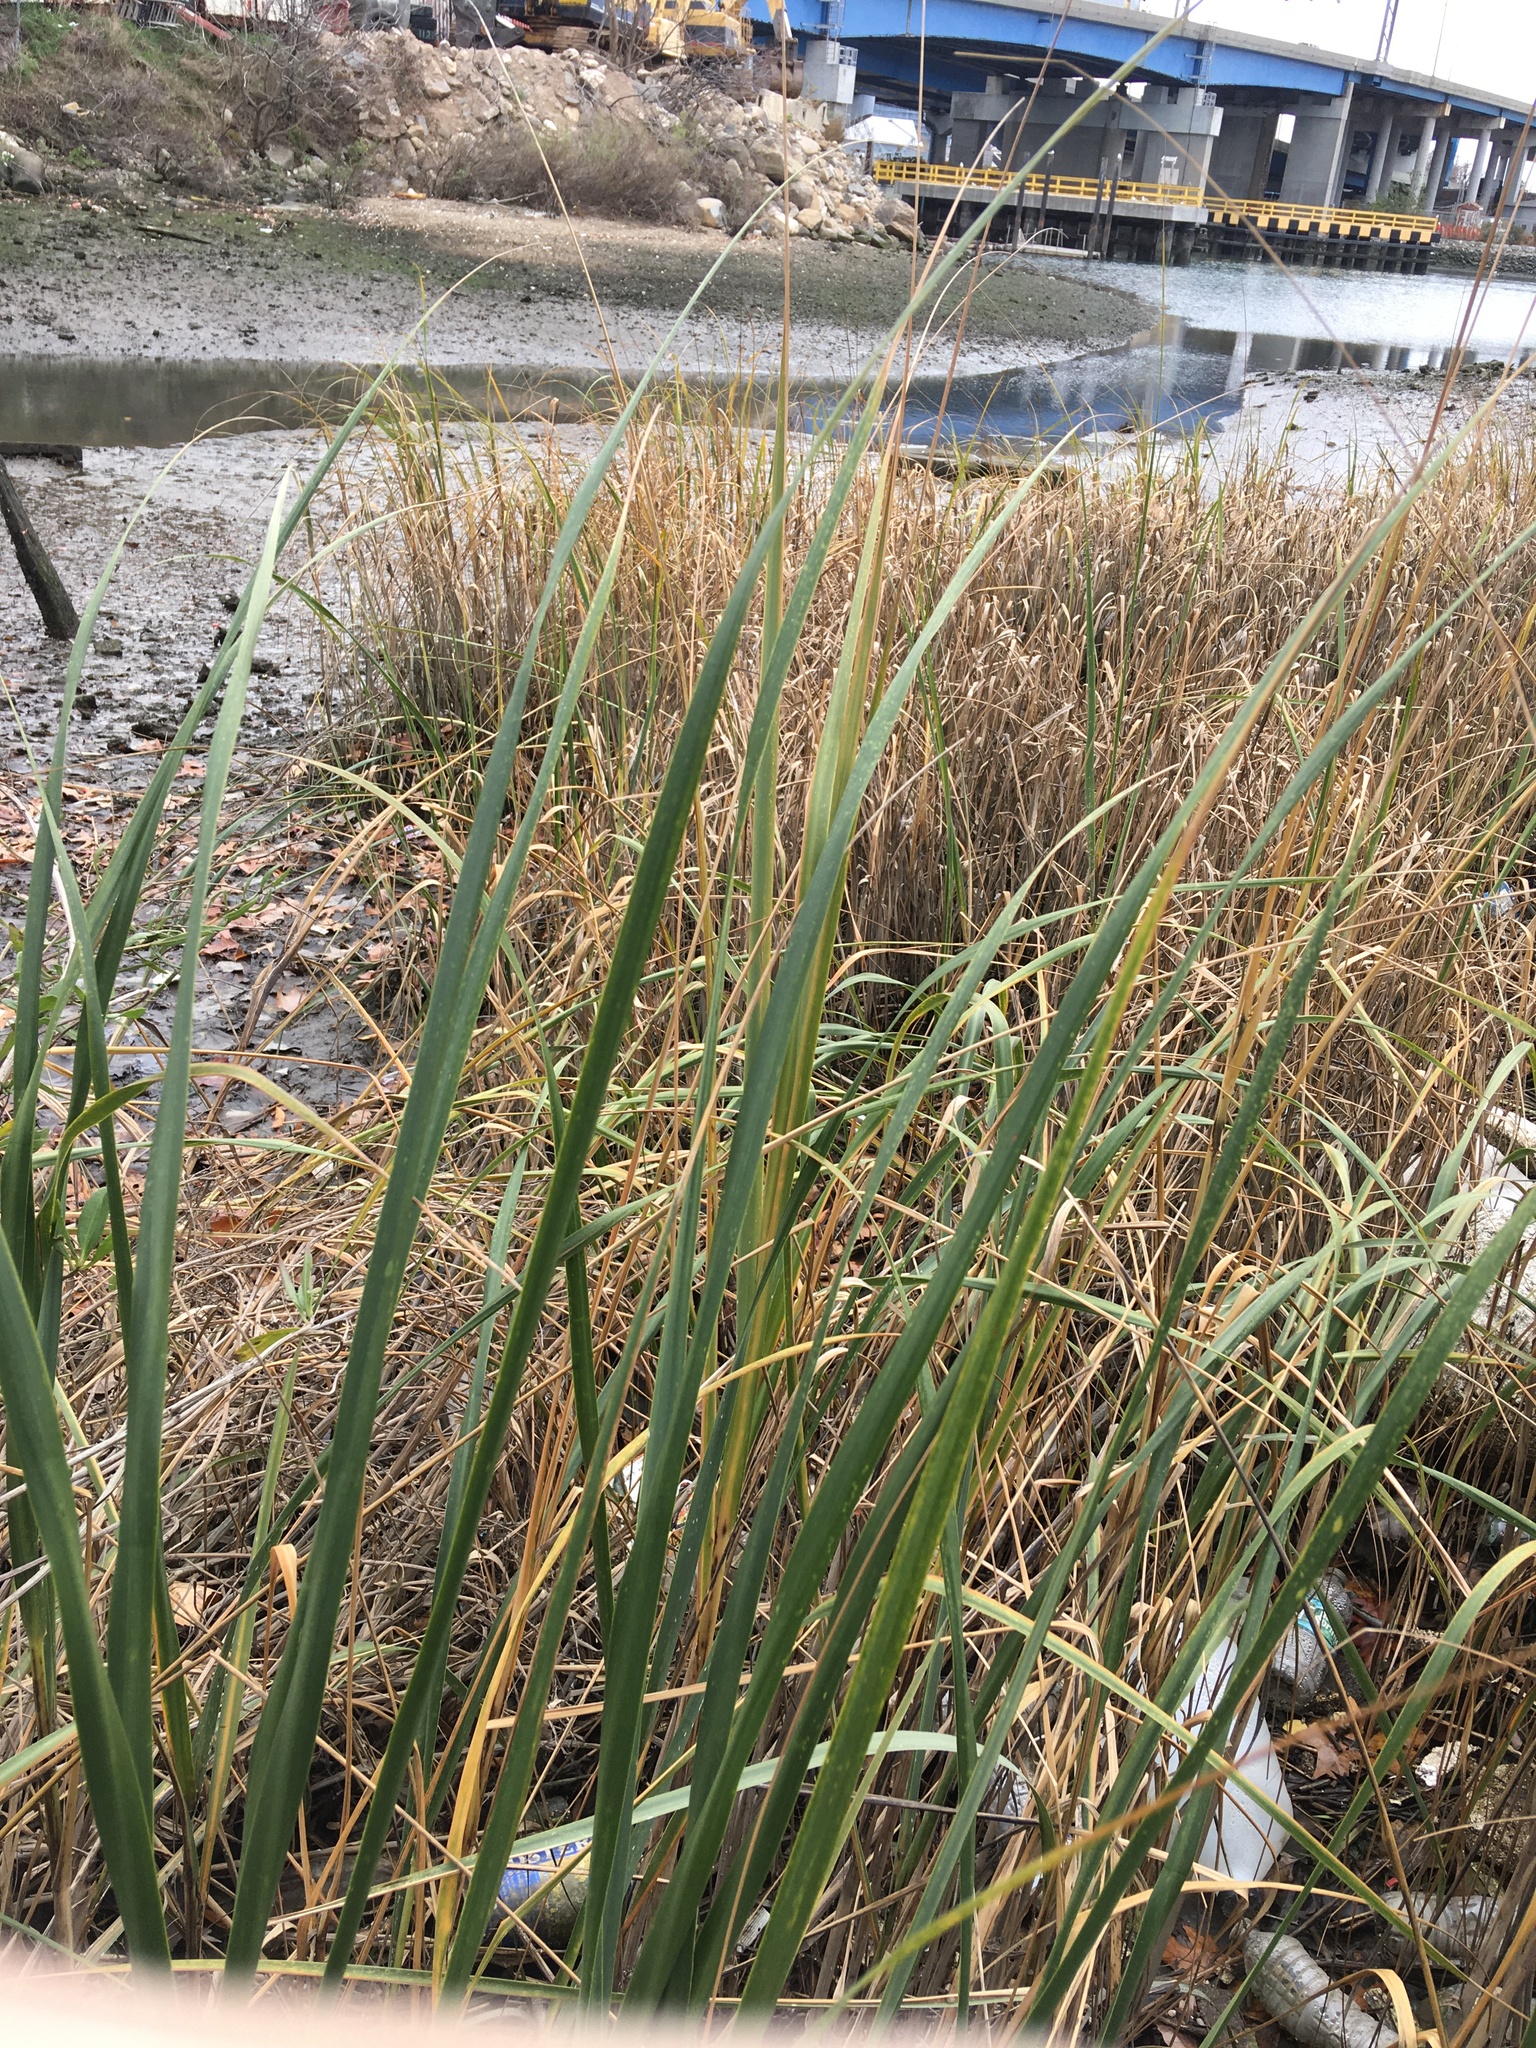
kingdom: Plantae
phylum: Tracheophyta
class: Liliopsida
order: Poales
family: Poaceae
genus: Sporobolus
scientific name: Sporobolus alterniflorus
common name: Atlantic cordgrass
